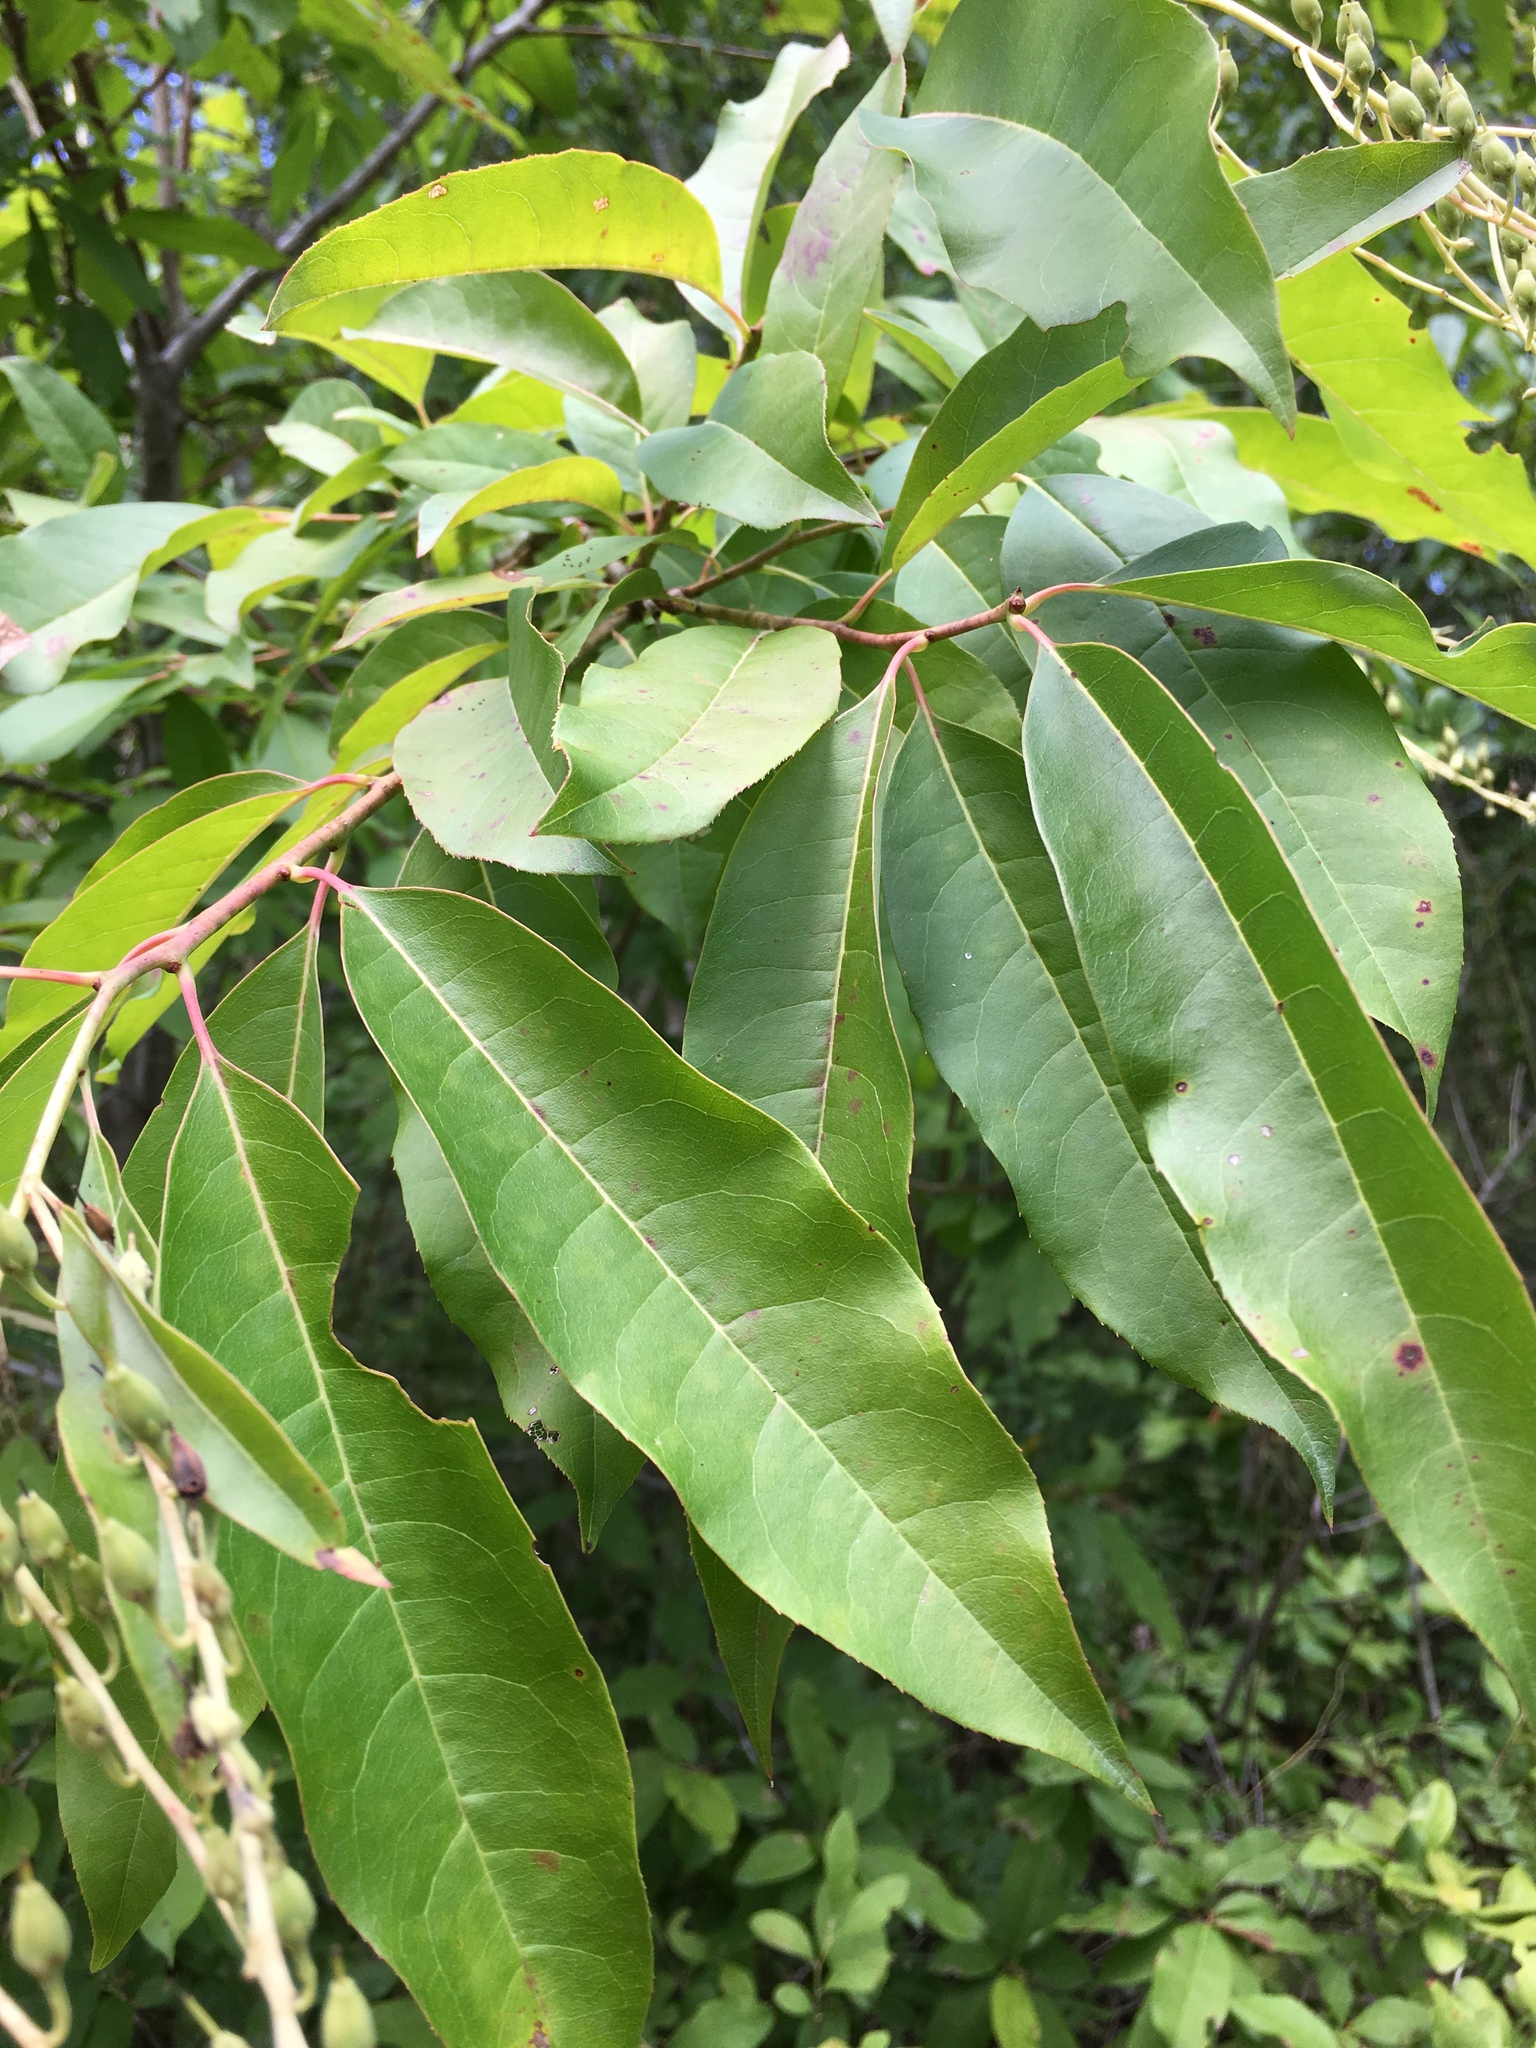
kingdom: Plantae
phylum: Tracheophyta
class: Magnoliopsida
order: Ericales
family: Ericaceae
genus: Oxydendrum
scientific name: Oxydendrum arboreum
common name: Sourwood
